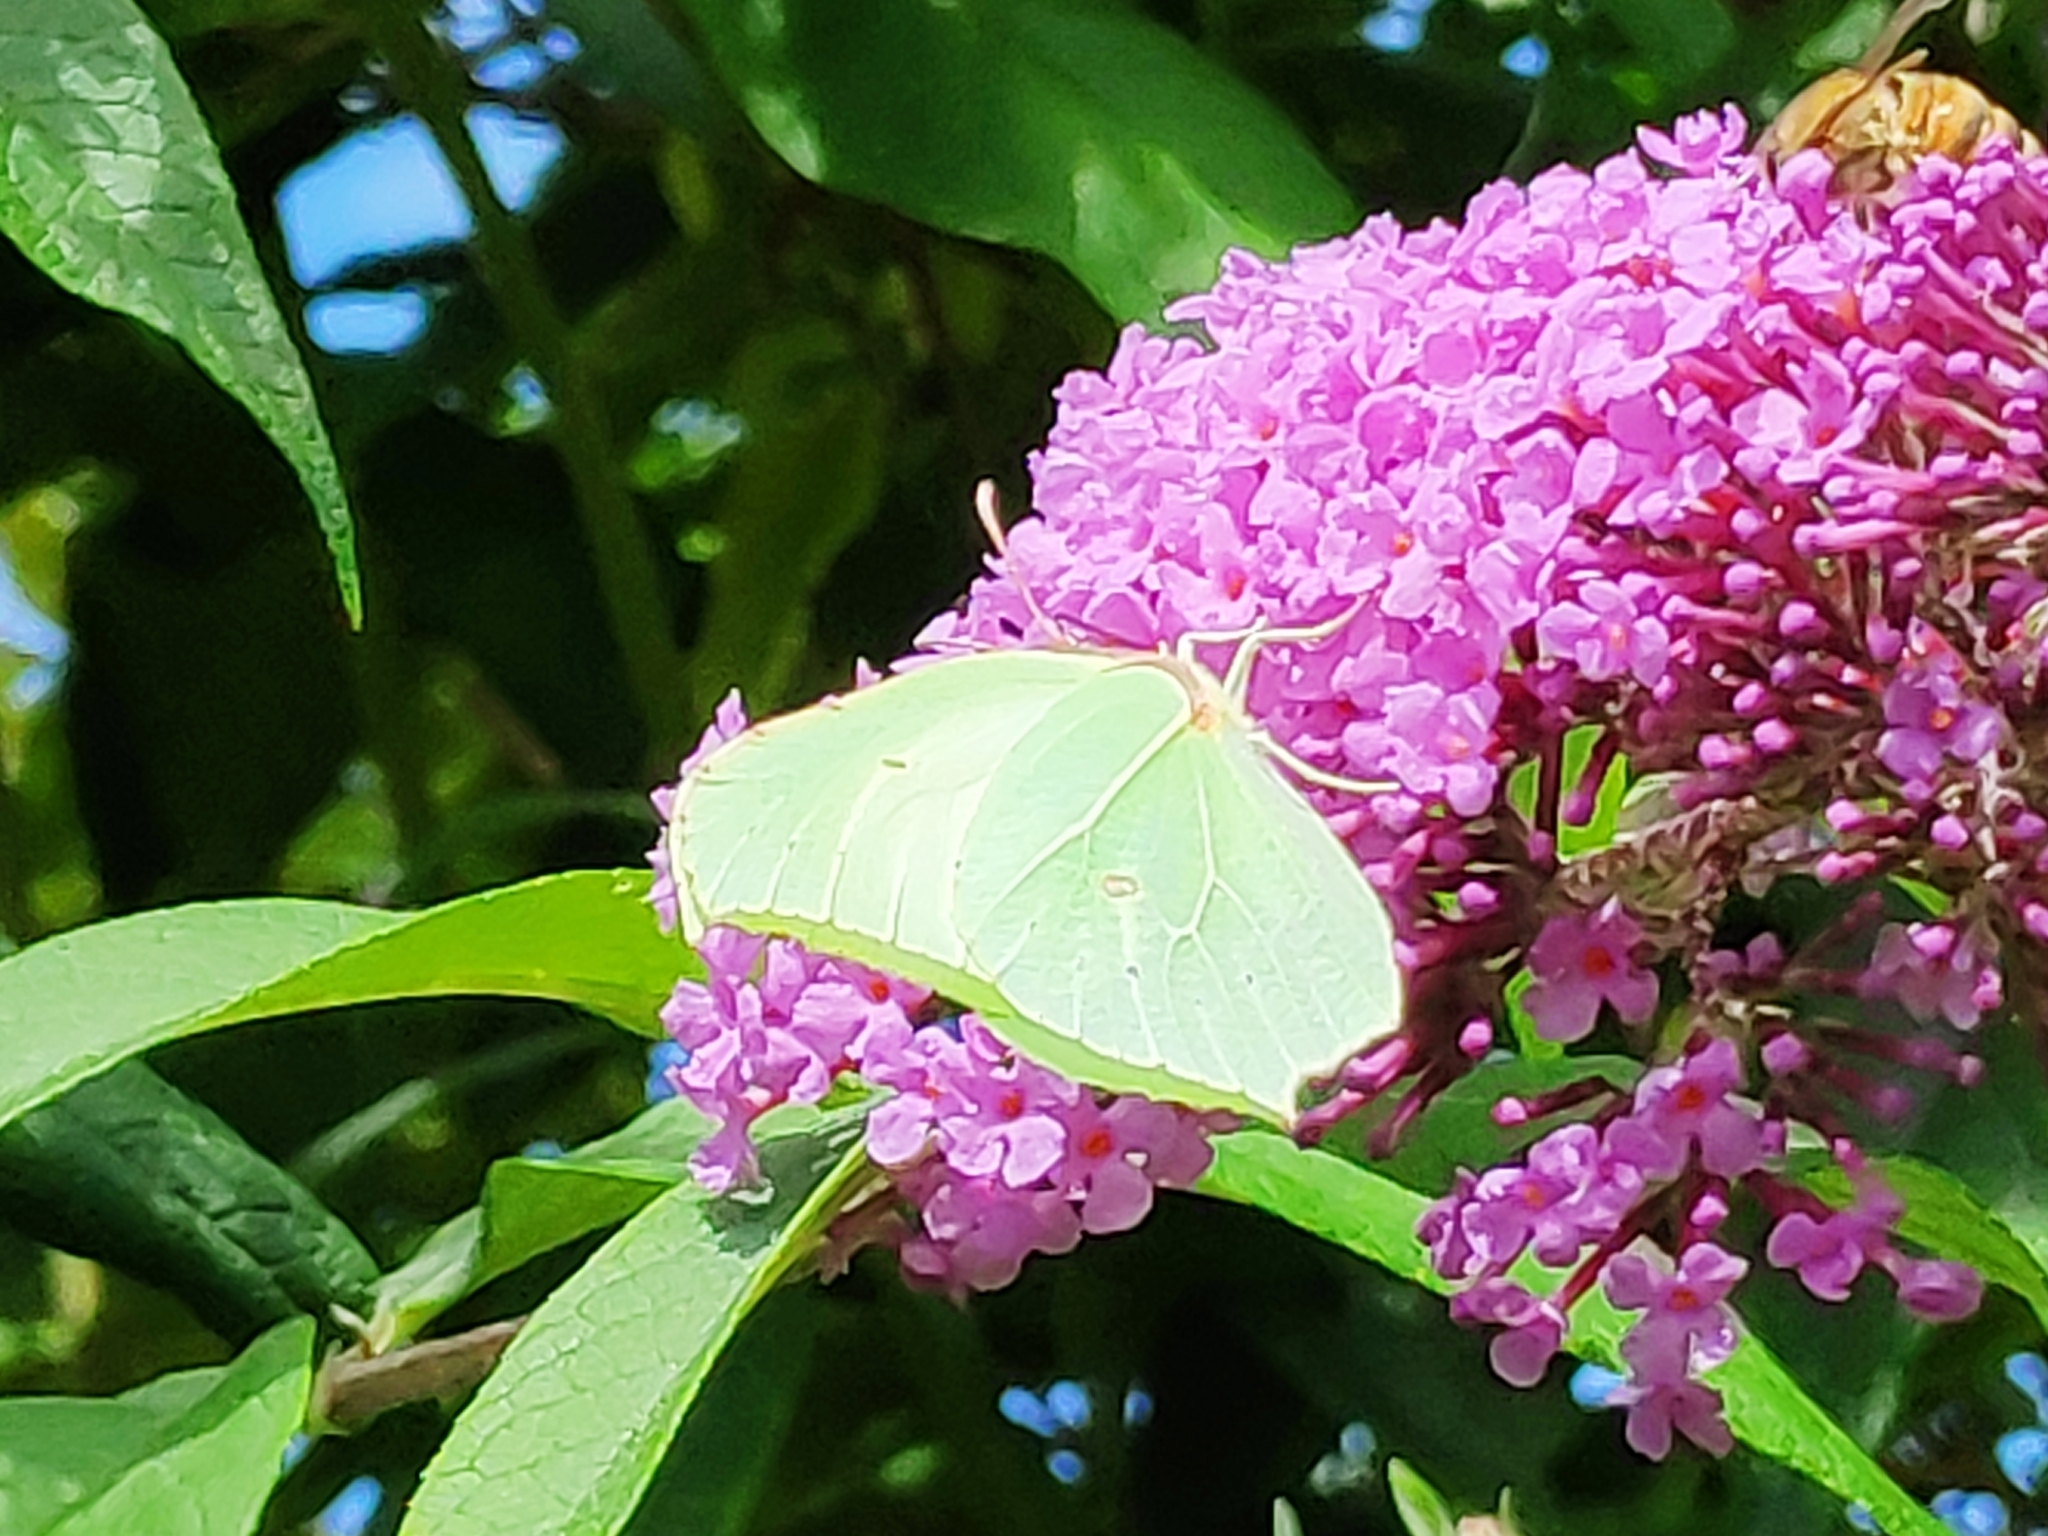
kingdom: Animalia
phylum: Arthropoda
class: Insecta
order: Lepidoptera
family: Pieridae
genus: Gonepteryx
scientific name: Gonepteryx rhamni
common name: Brimstone
